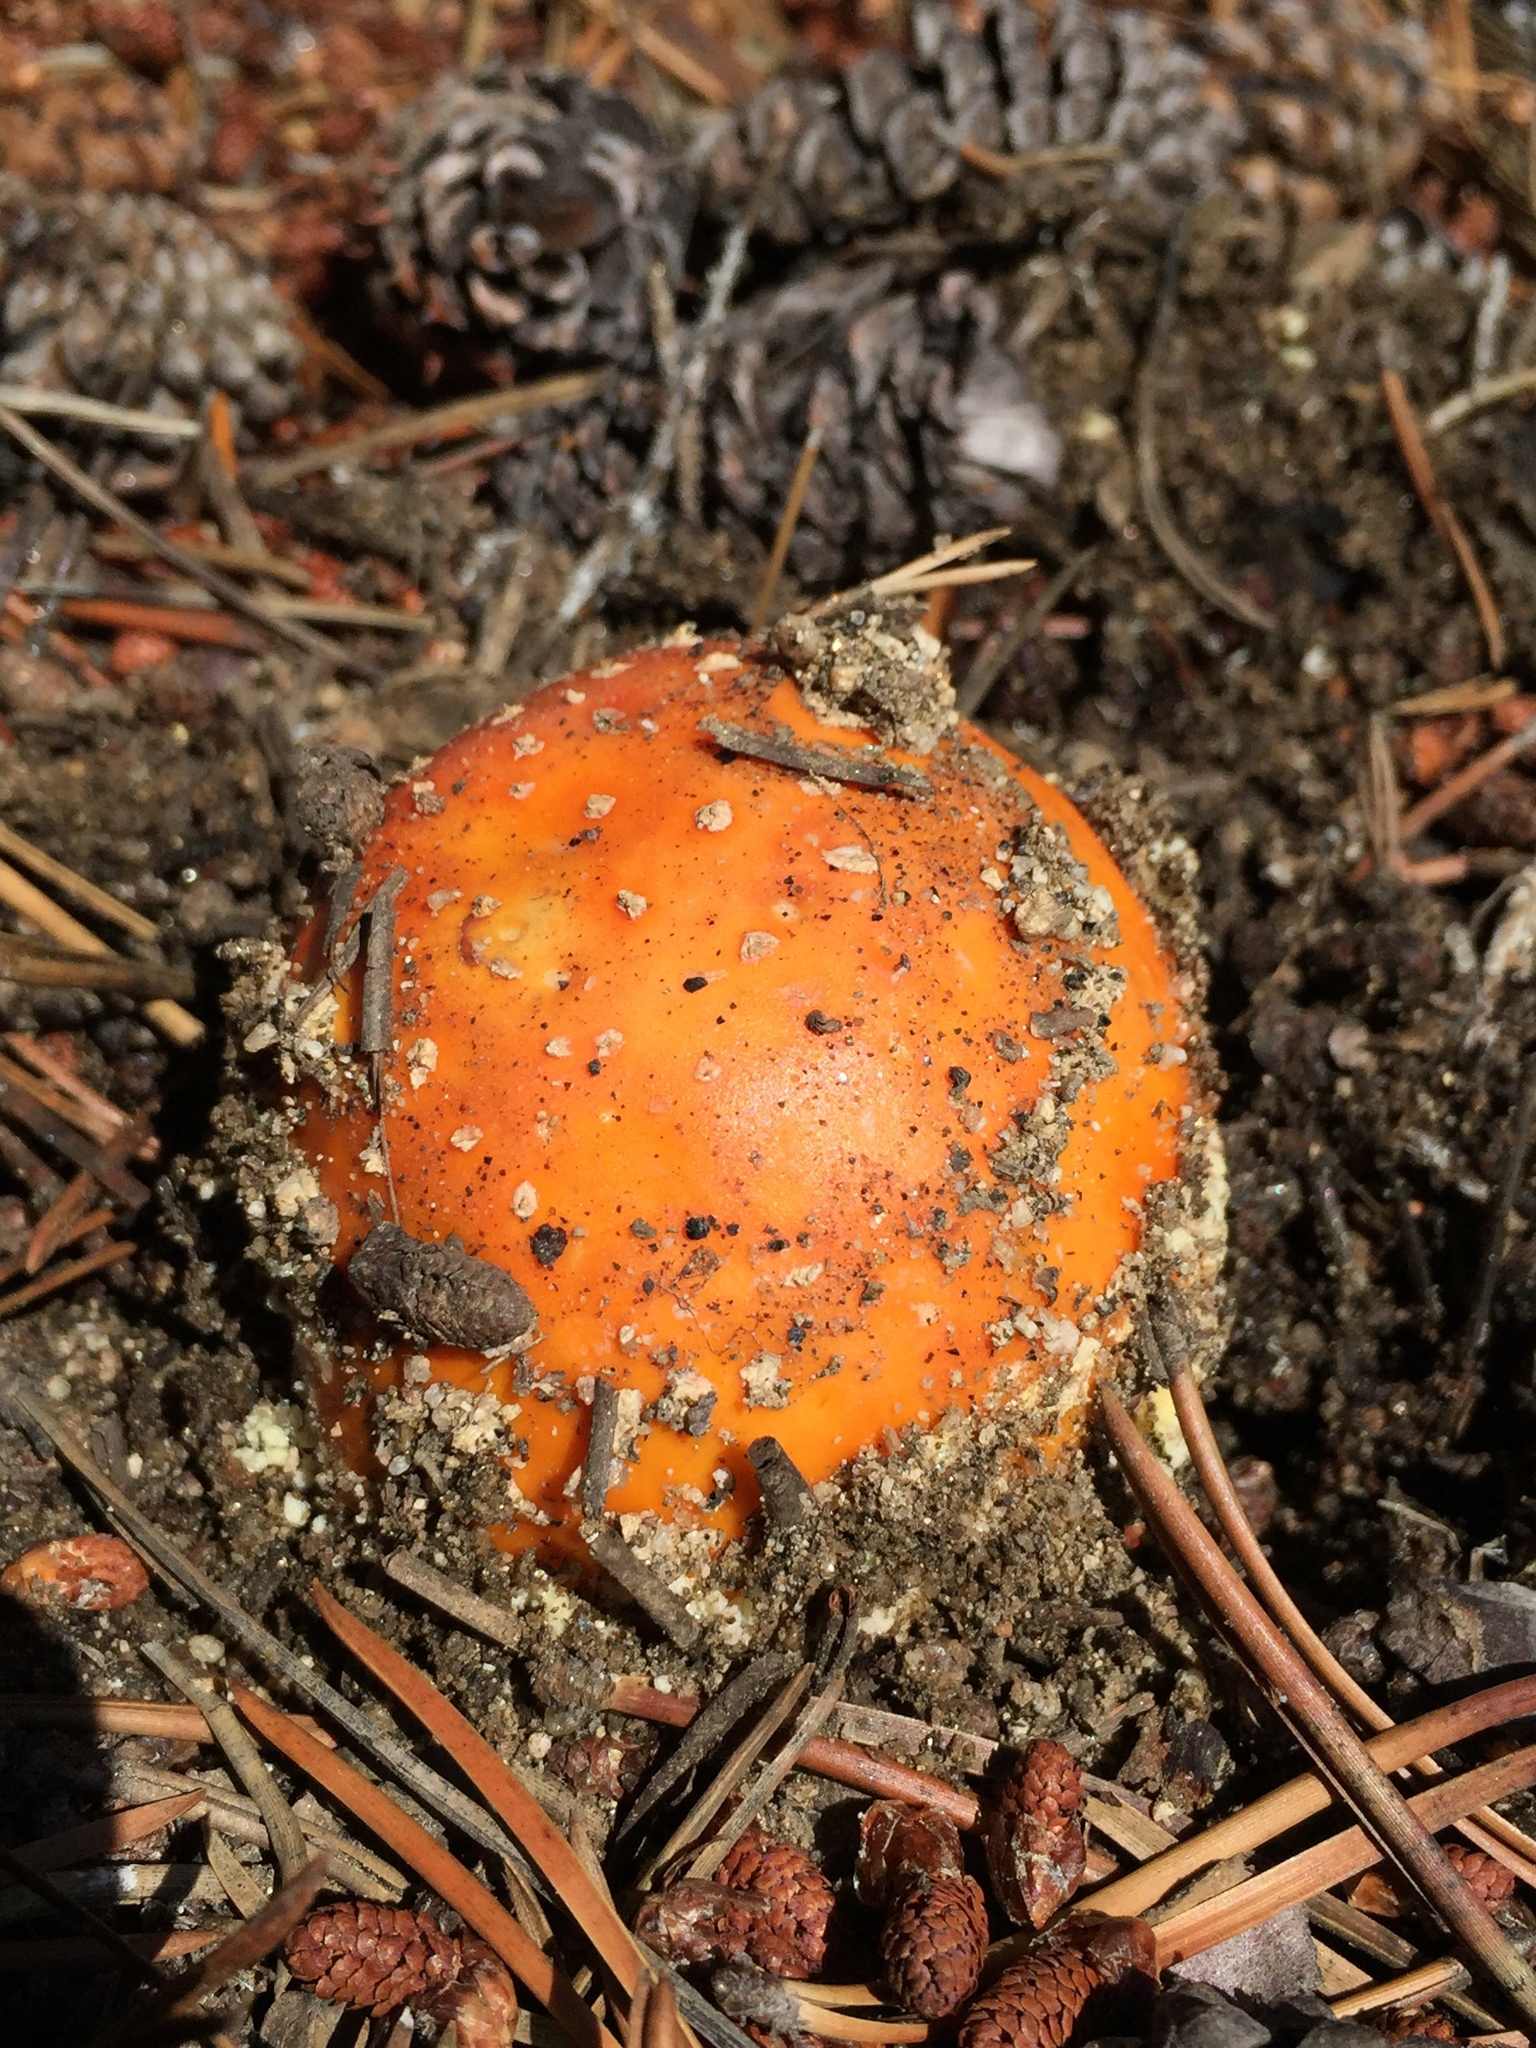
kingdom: Fungi
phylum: Basidiomycota
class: Agaricomycetes
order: Agaricales
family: Amanitaceae
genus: Amanita
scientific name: Amanita muscaria
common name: Fly agaric
